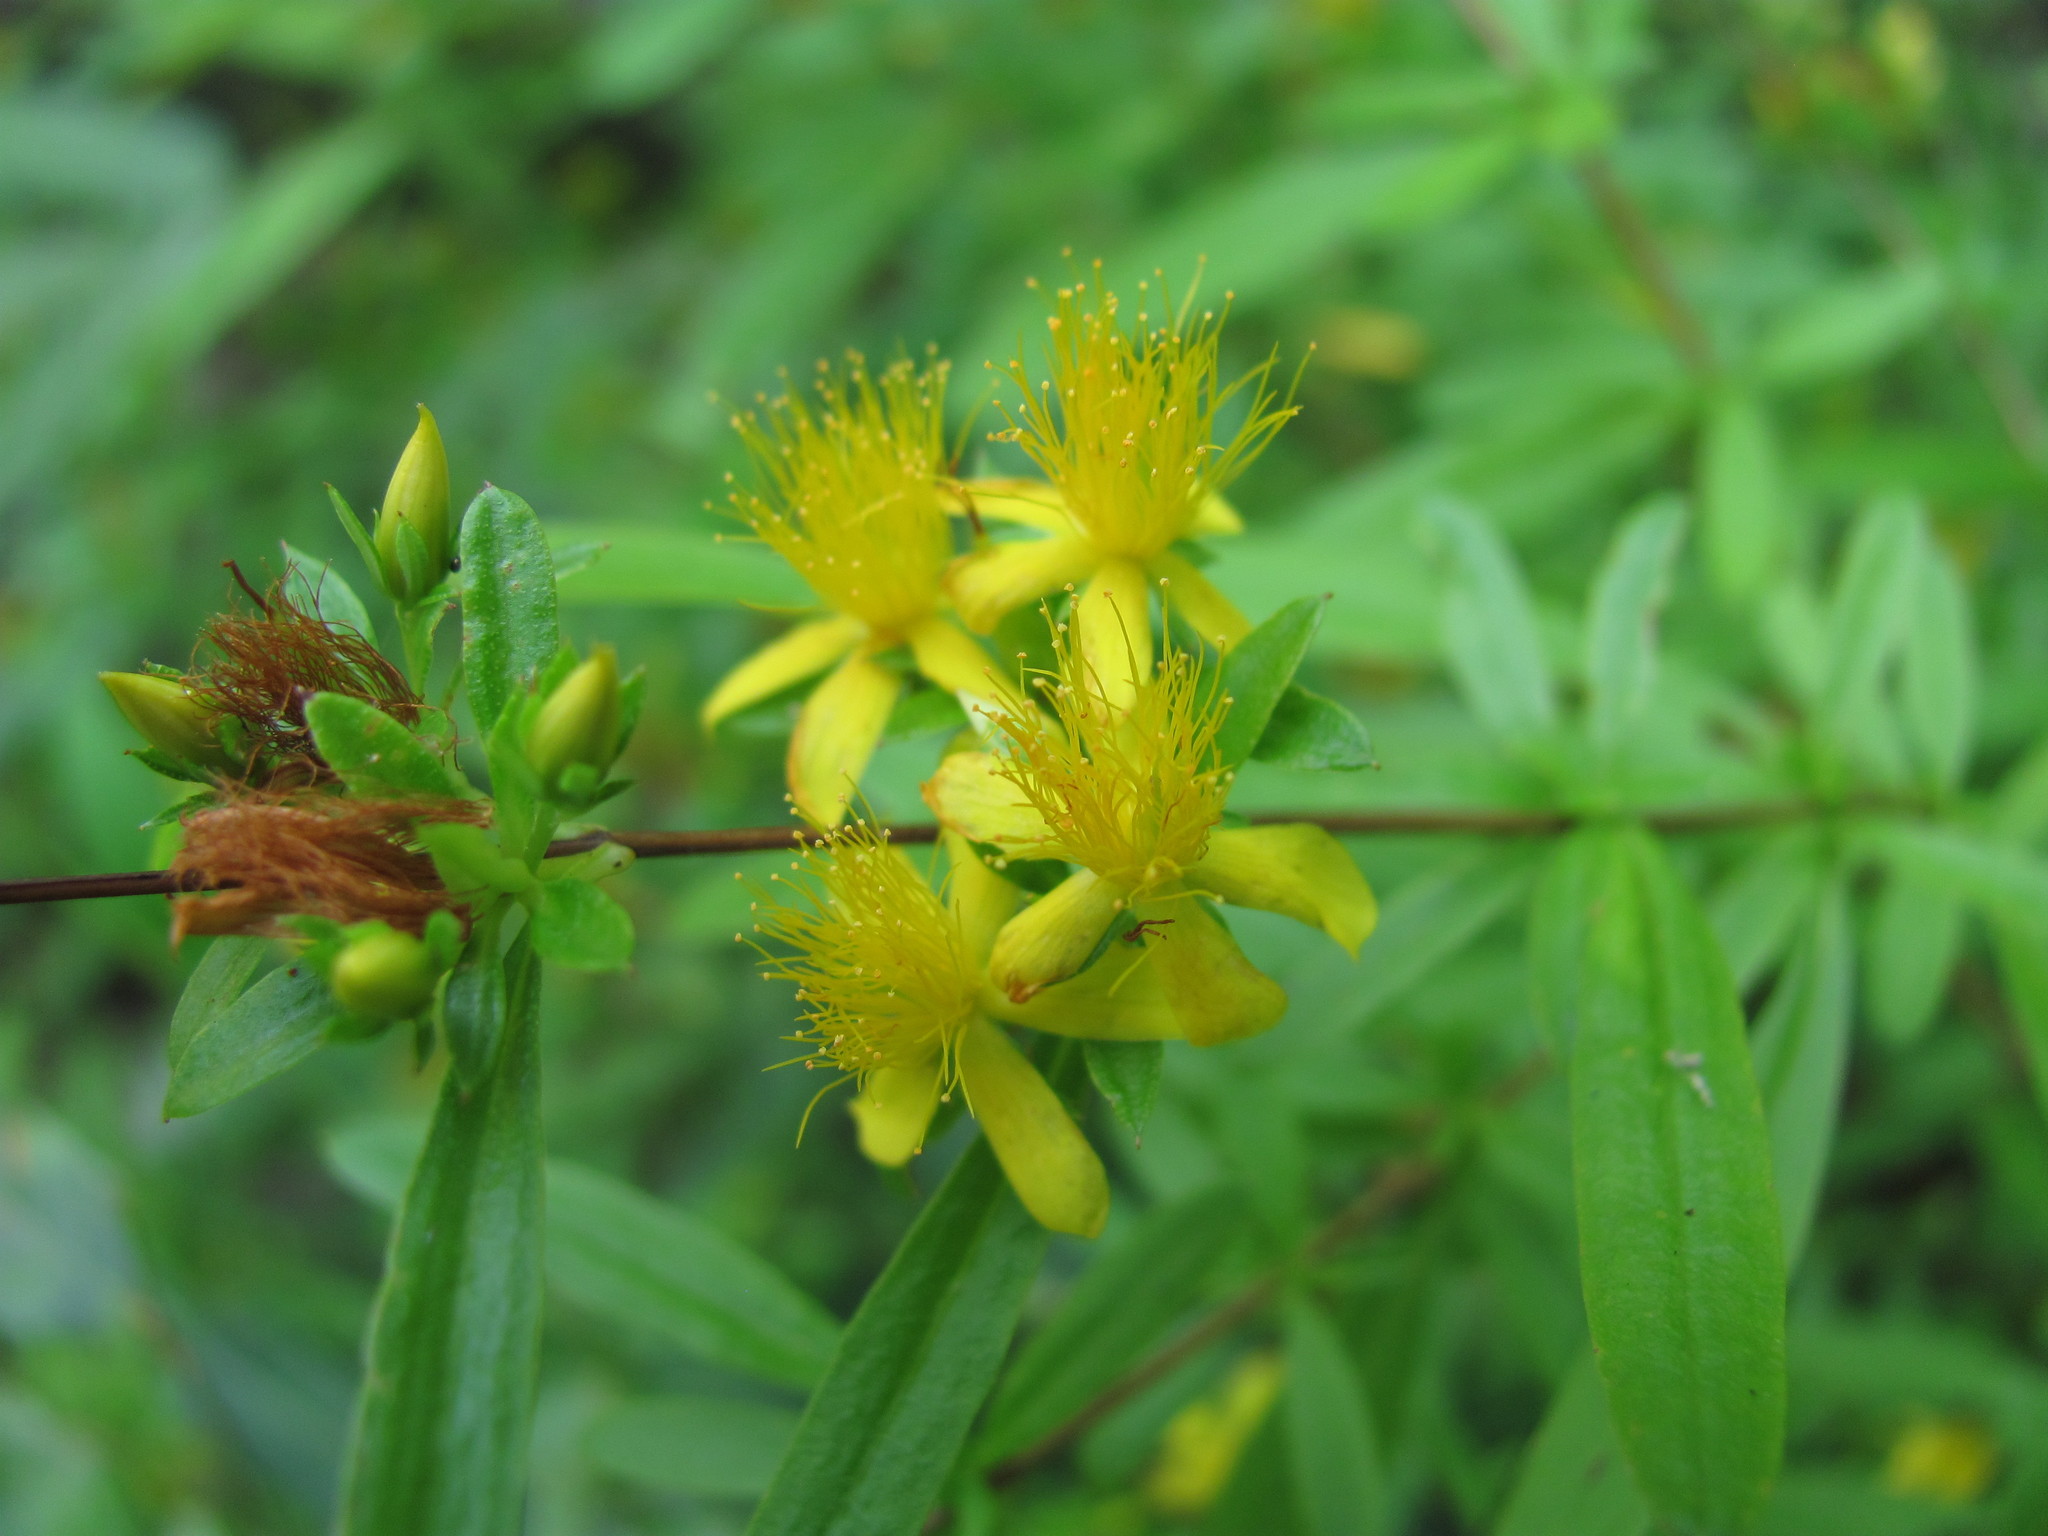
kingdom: Plantae
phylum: Tracheophyta
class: Magnoliopsida
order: Malpighiales
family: Hypericaceae
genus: Hypericum
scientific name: Hypericum galioides
